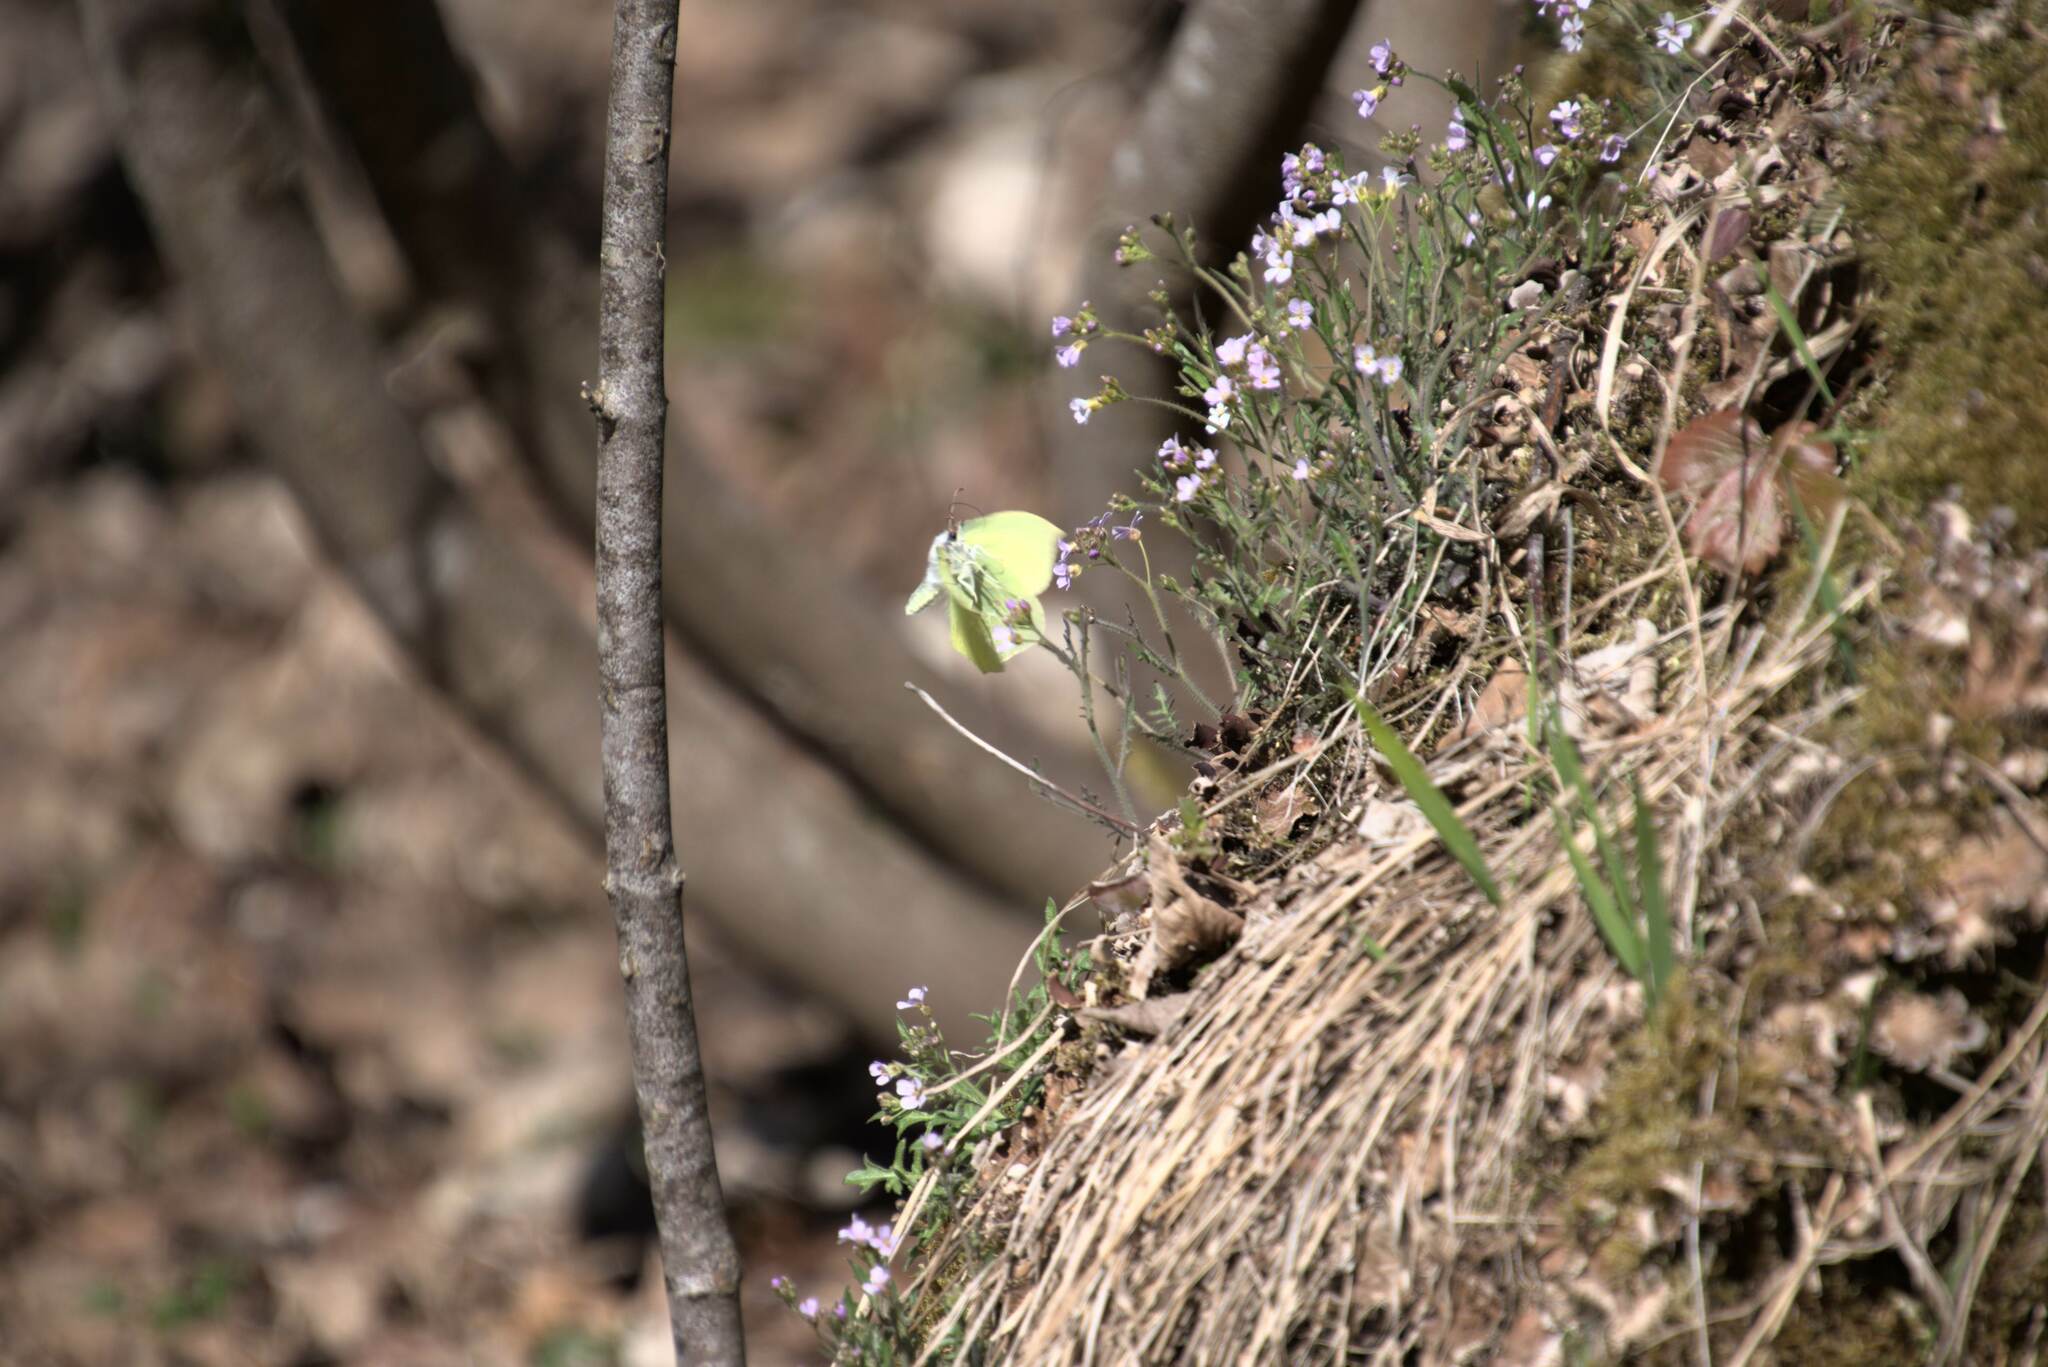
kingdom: Animalia
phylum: Arthropoda
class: Insecta
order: Lepidoptera
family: Pieridae
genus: Gonepteryx
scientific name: Gonepteryx rhamni
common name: Brimstone
